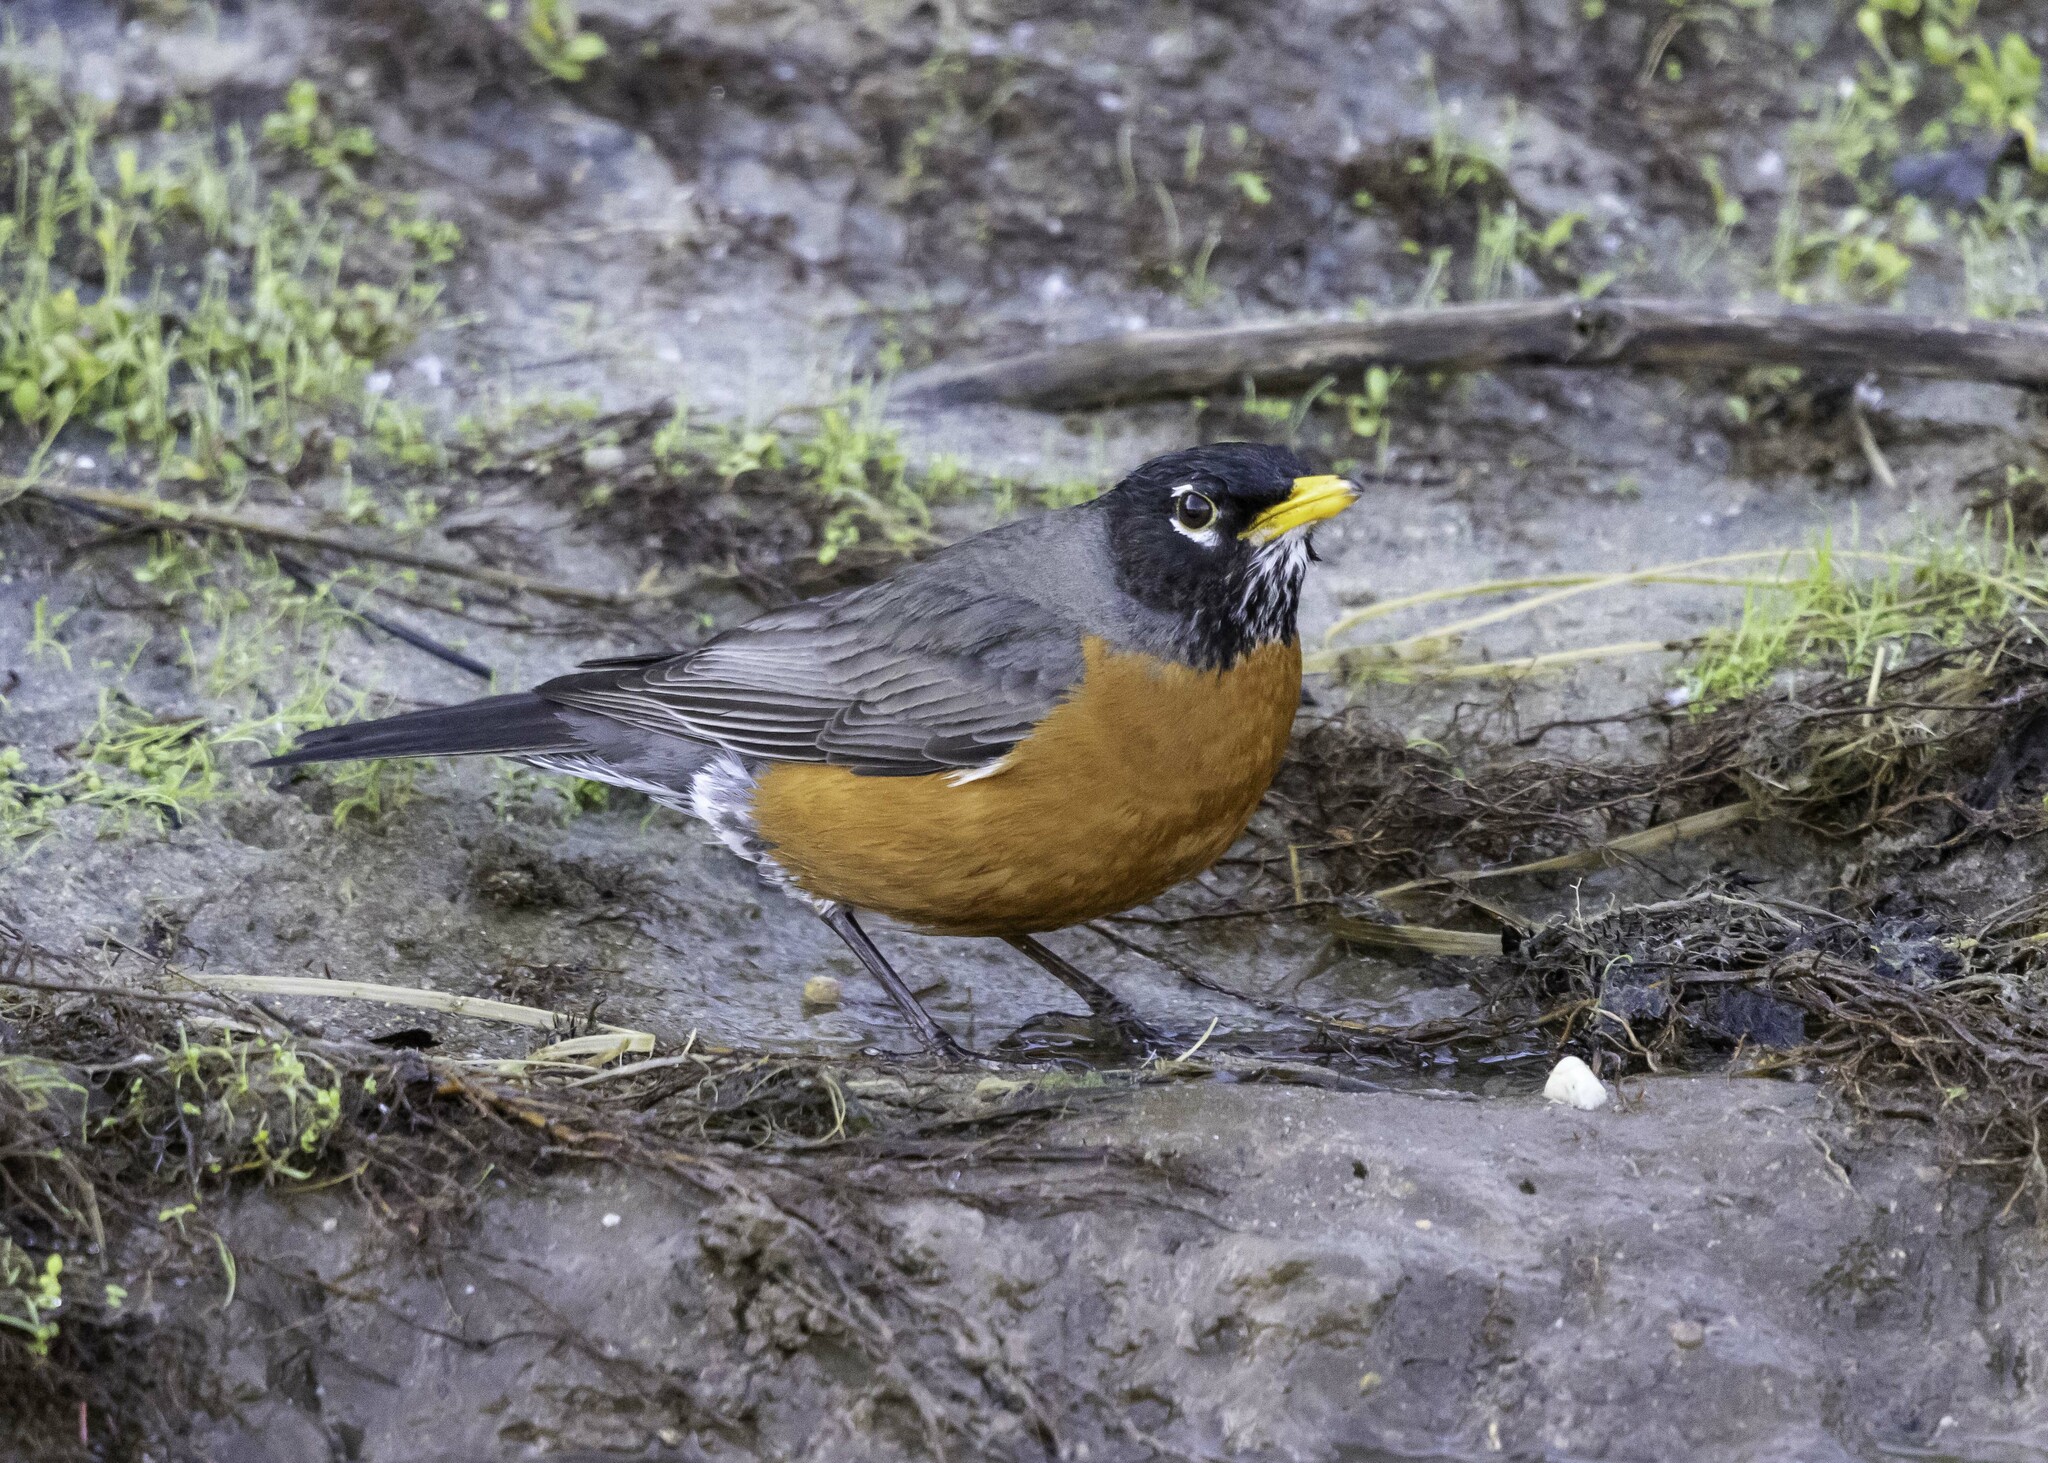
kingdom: Animalia
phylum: Chordata
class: Aves
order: Passeriformes
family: Turdidae
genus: Turdus
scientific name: Turdus migratorius
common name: American robin
